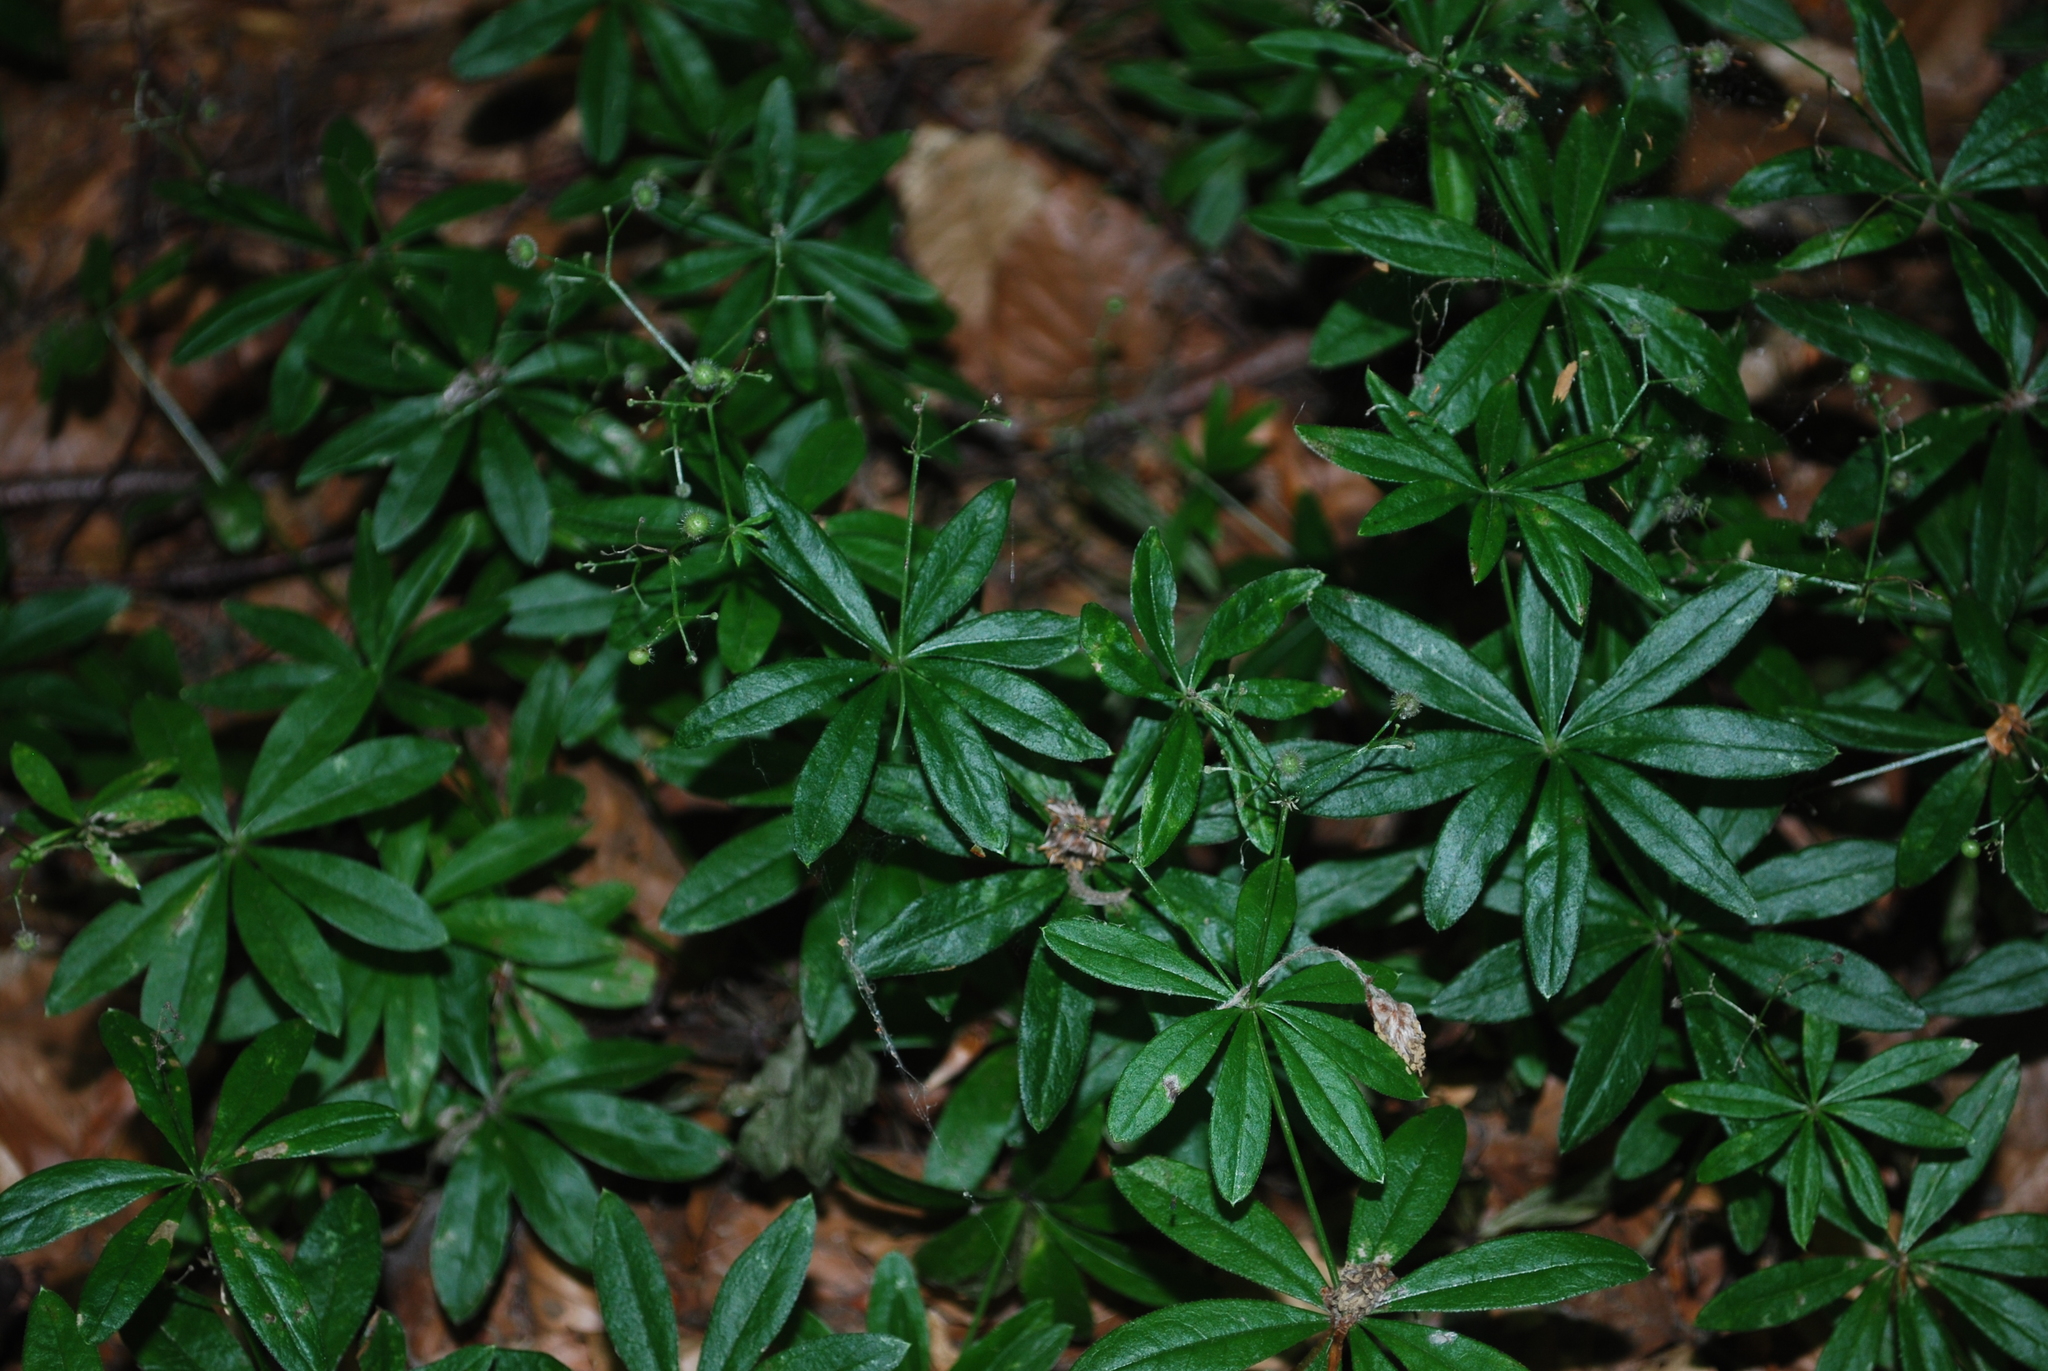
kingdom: Plantae
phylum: Tracheophyta
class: Magnoliopsida
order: Gentianales
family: Rubiaceae
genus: Galium
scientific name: Galium odoratum
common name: Sweet woodruff
